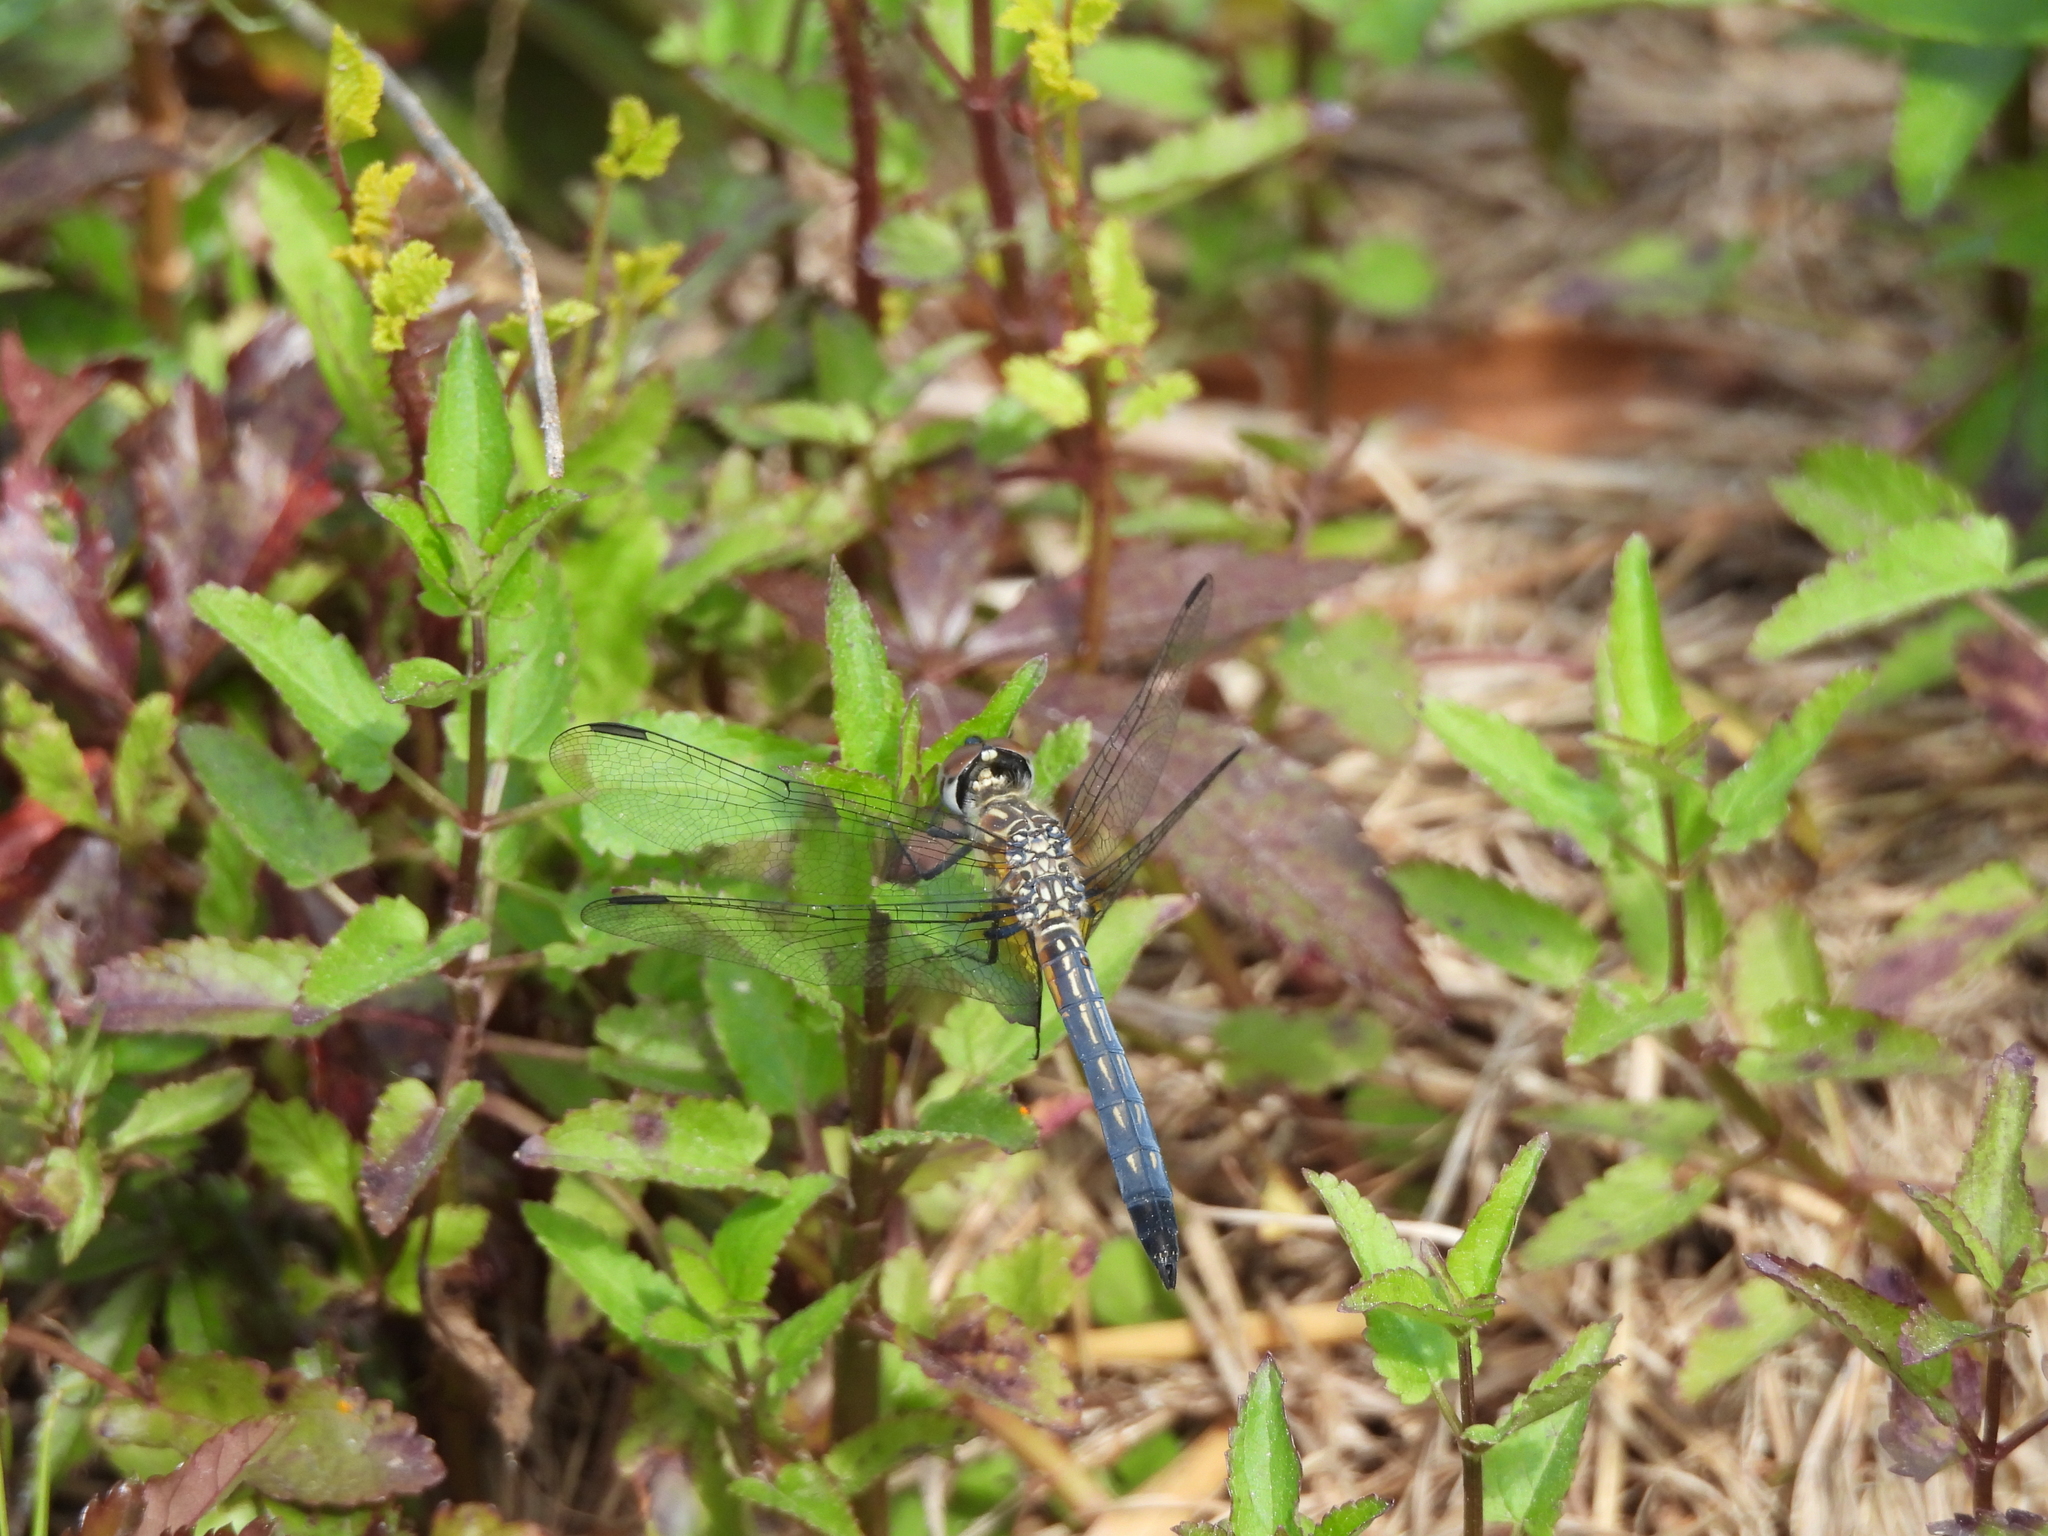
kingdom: Animalia
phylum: Arthropoda
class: Insecta
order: Odonata
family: Libellulidae
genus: Pachydiplax
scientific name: Pachydiplax longipennis
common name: Blue dasher
